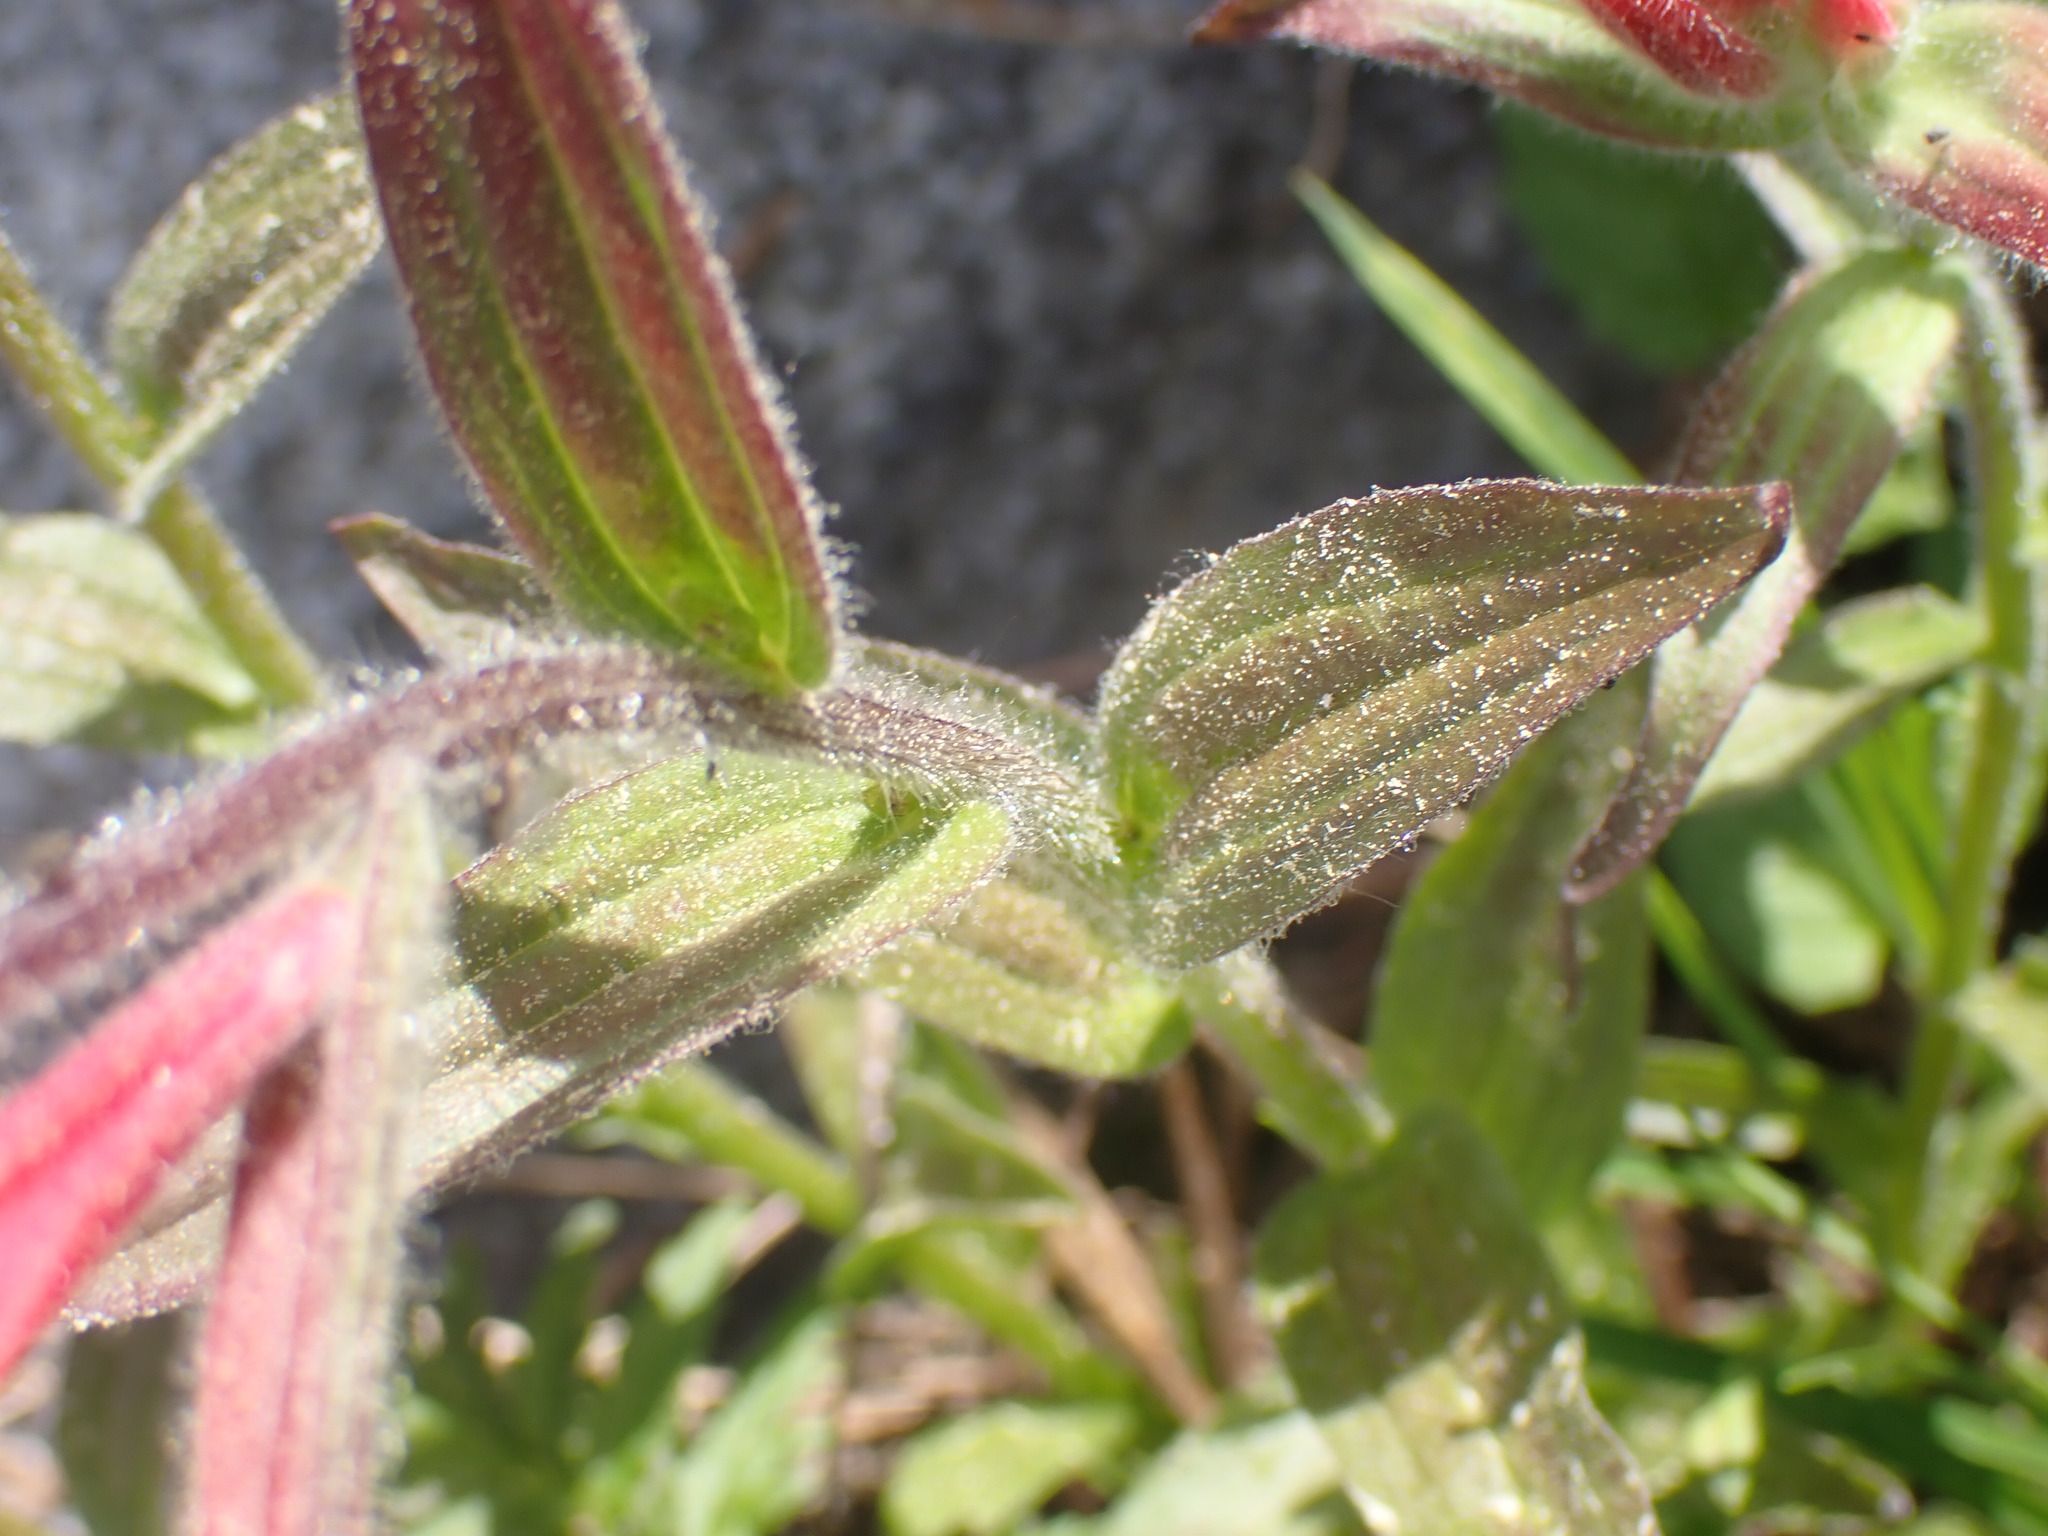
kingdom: Plantae
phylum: Tracheophyta
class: Magnoliopsida
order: Lamiales
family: Orobanchaceae
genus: Castilleja
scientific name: Castilleja miniata
